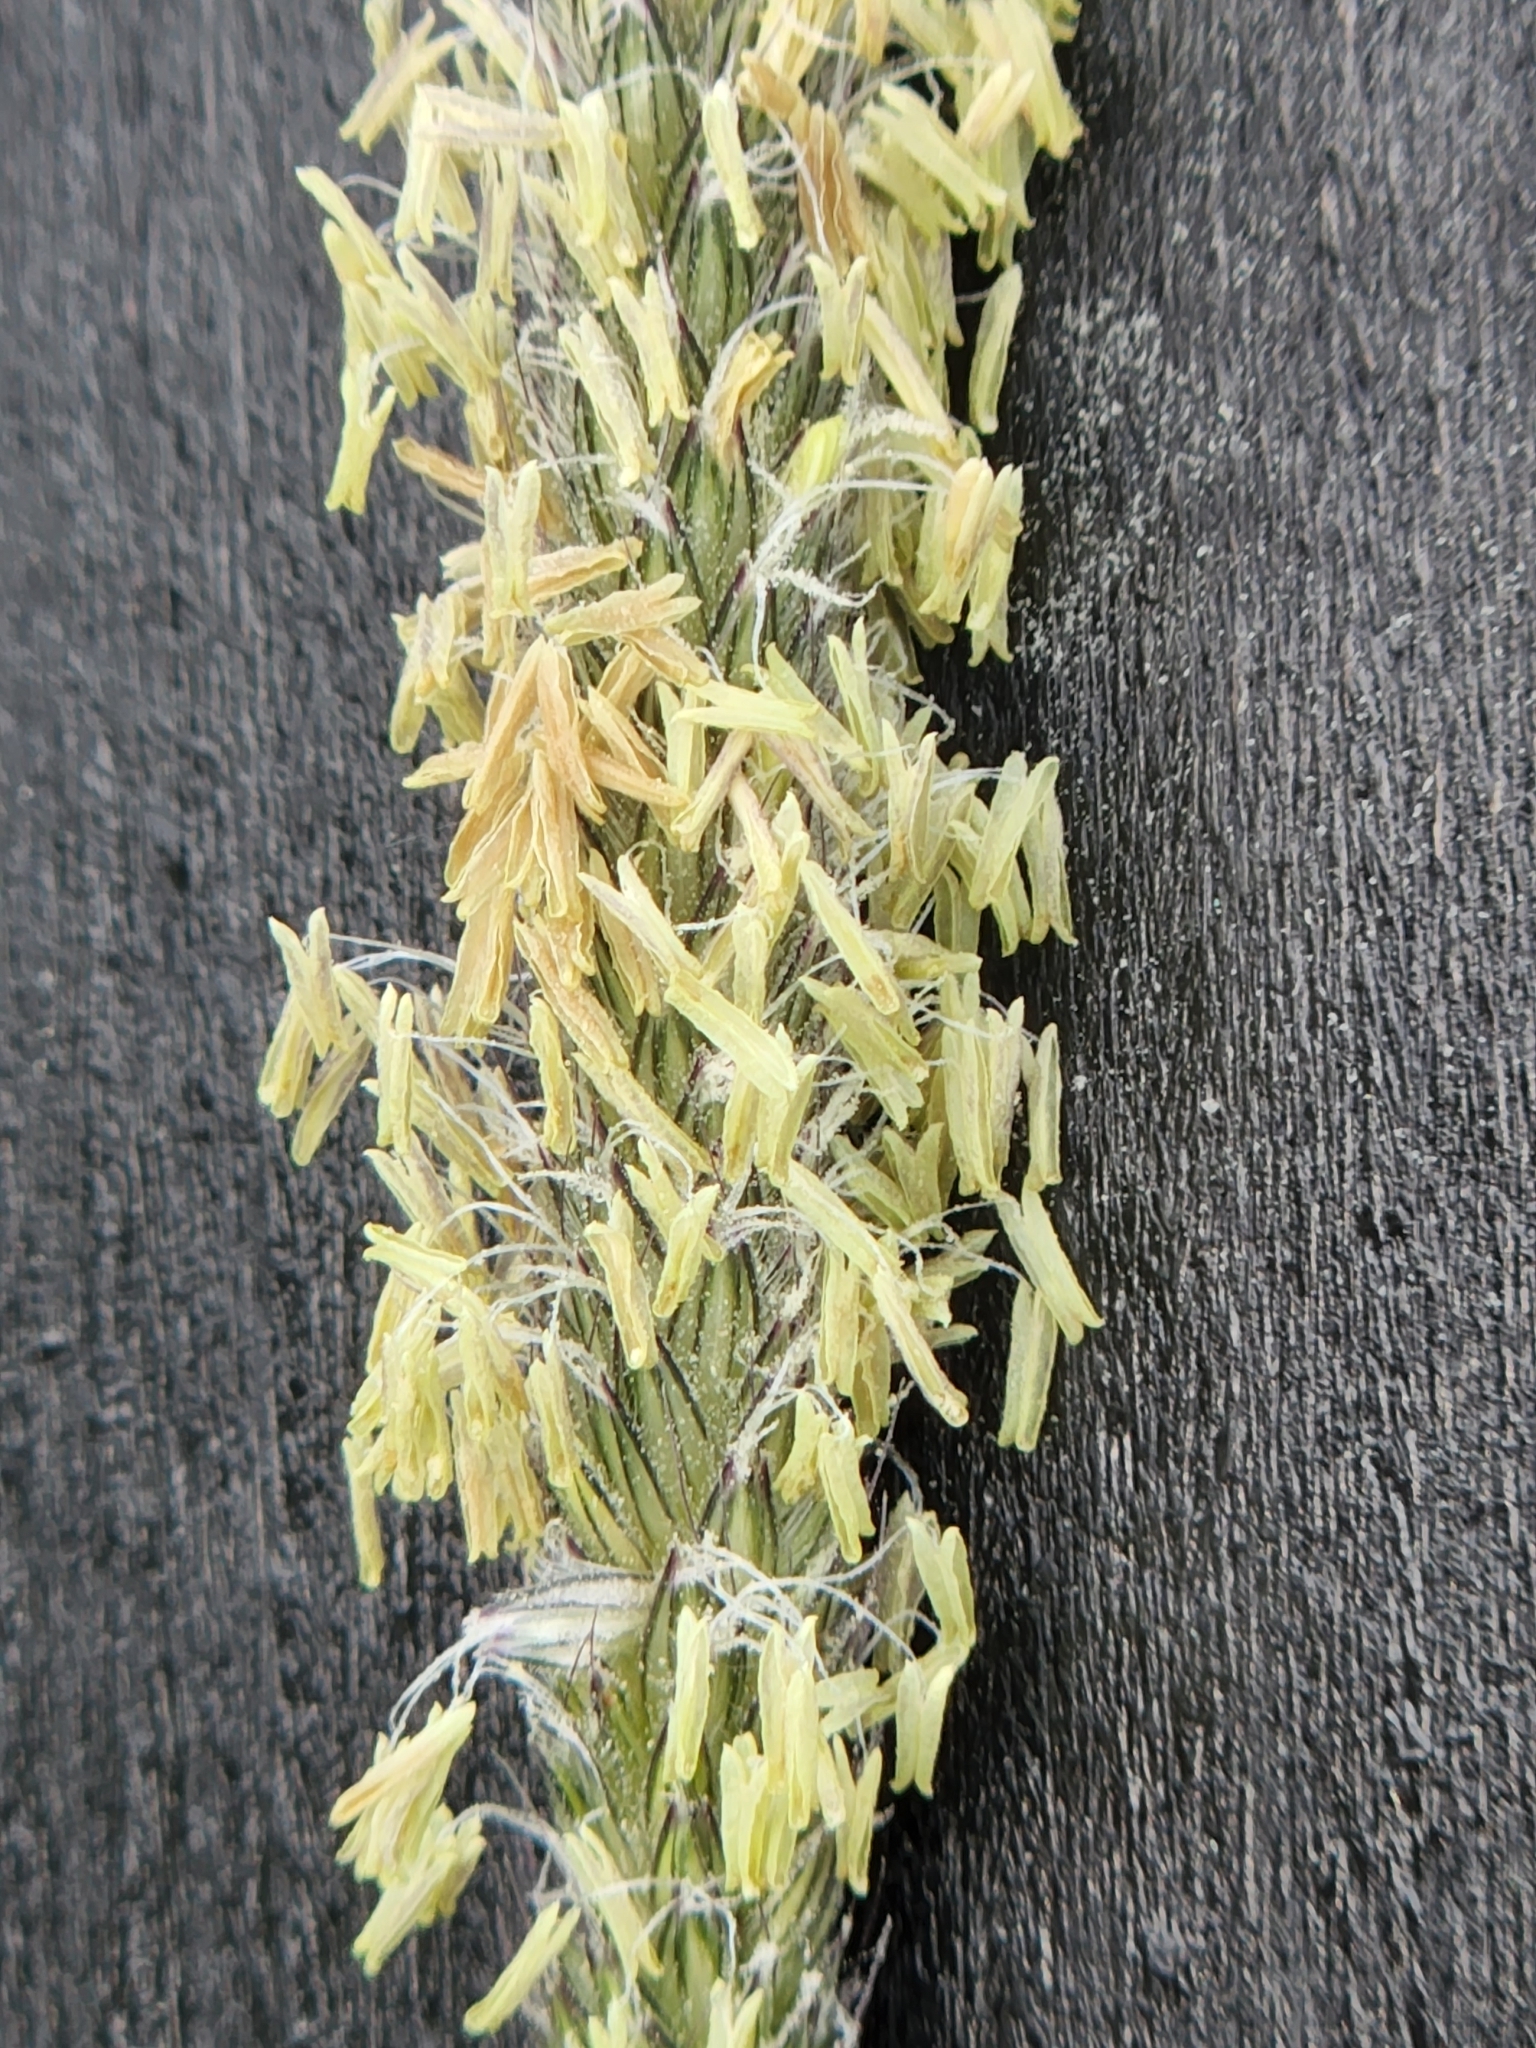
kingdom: Plantae
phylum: Tracheophyta
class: Liliopsida
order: Poales
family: Poaceae
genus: Phleum
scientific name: Phleum pratense
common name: Timothy grass
